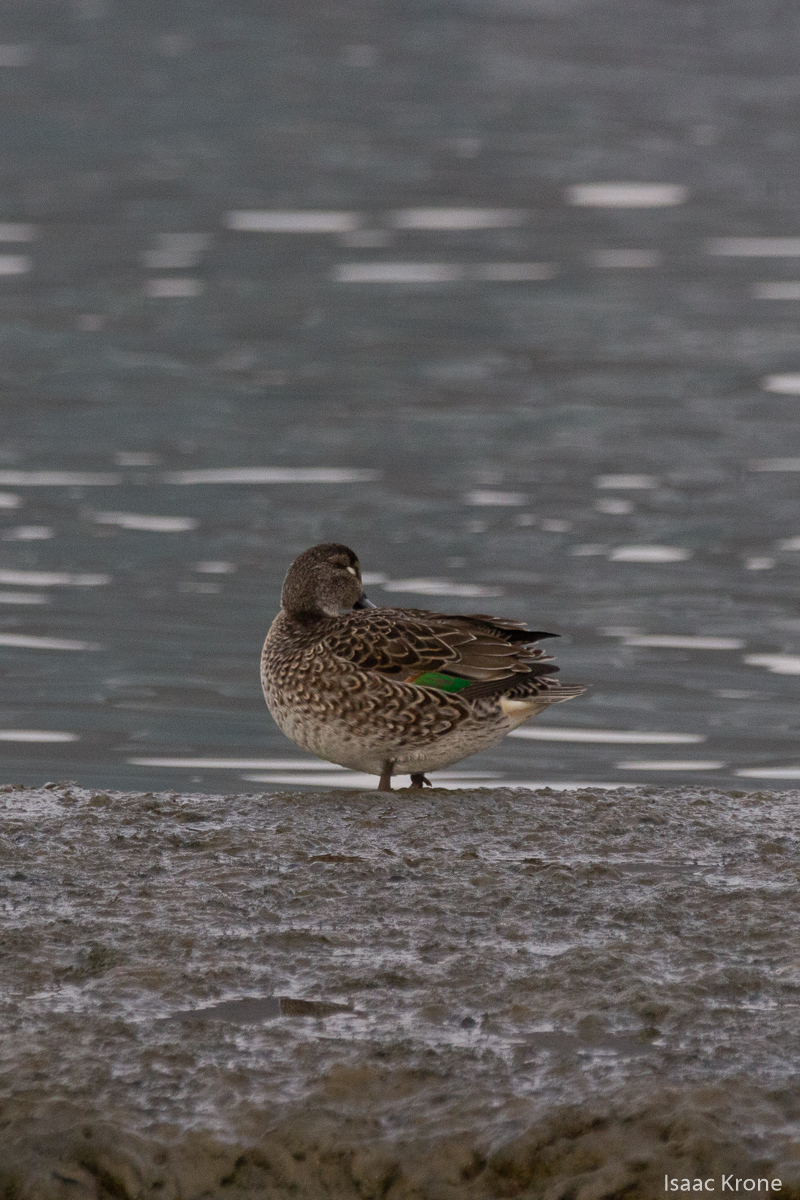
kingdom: Animalia
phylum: Chordata
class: Aves
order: Anseriformes
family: Anatidae
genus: Anas
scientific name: Anas crecca
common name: Eurasian teal
